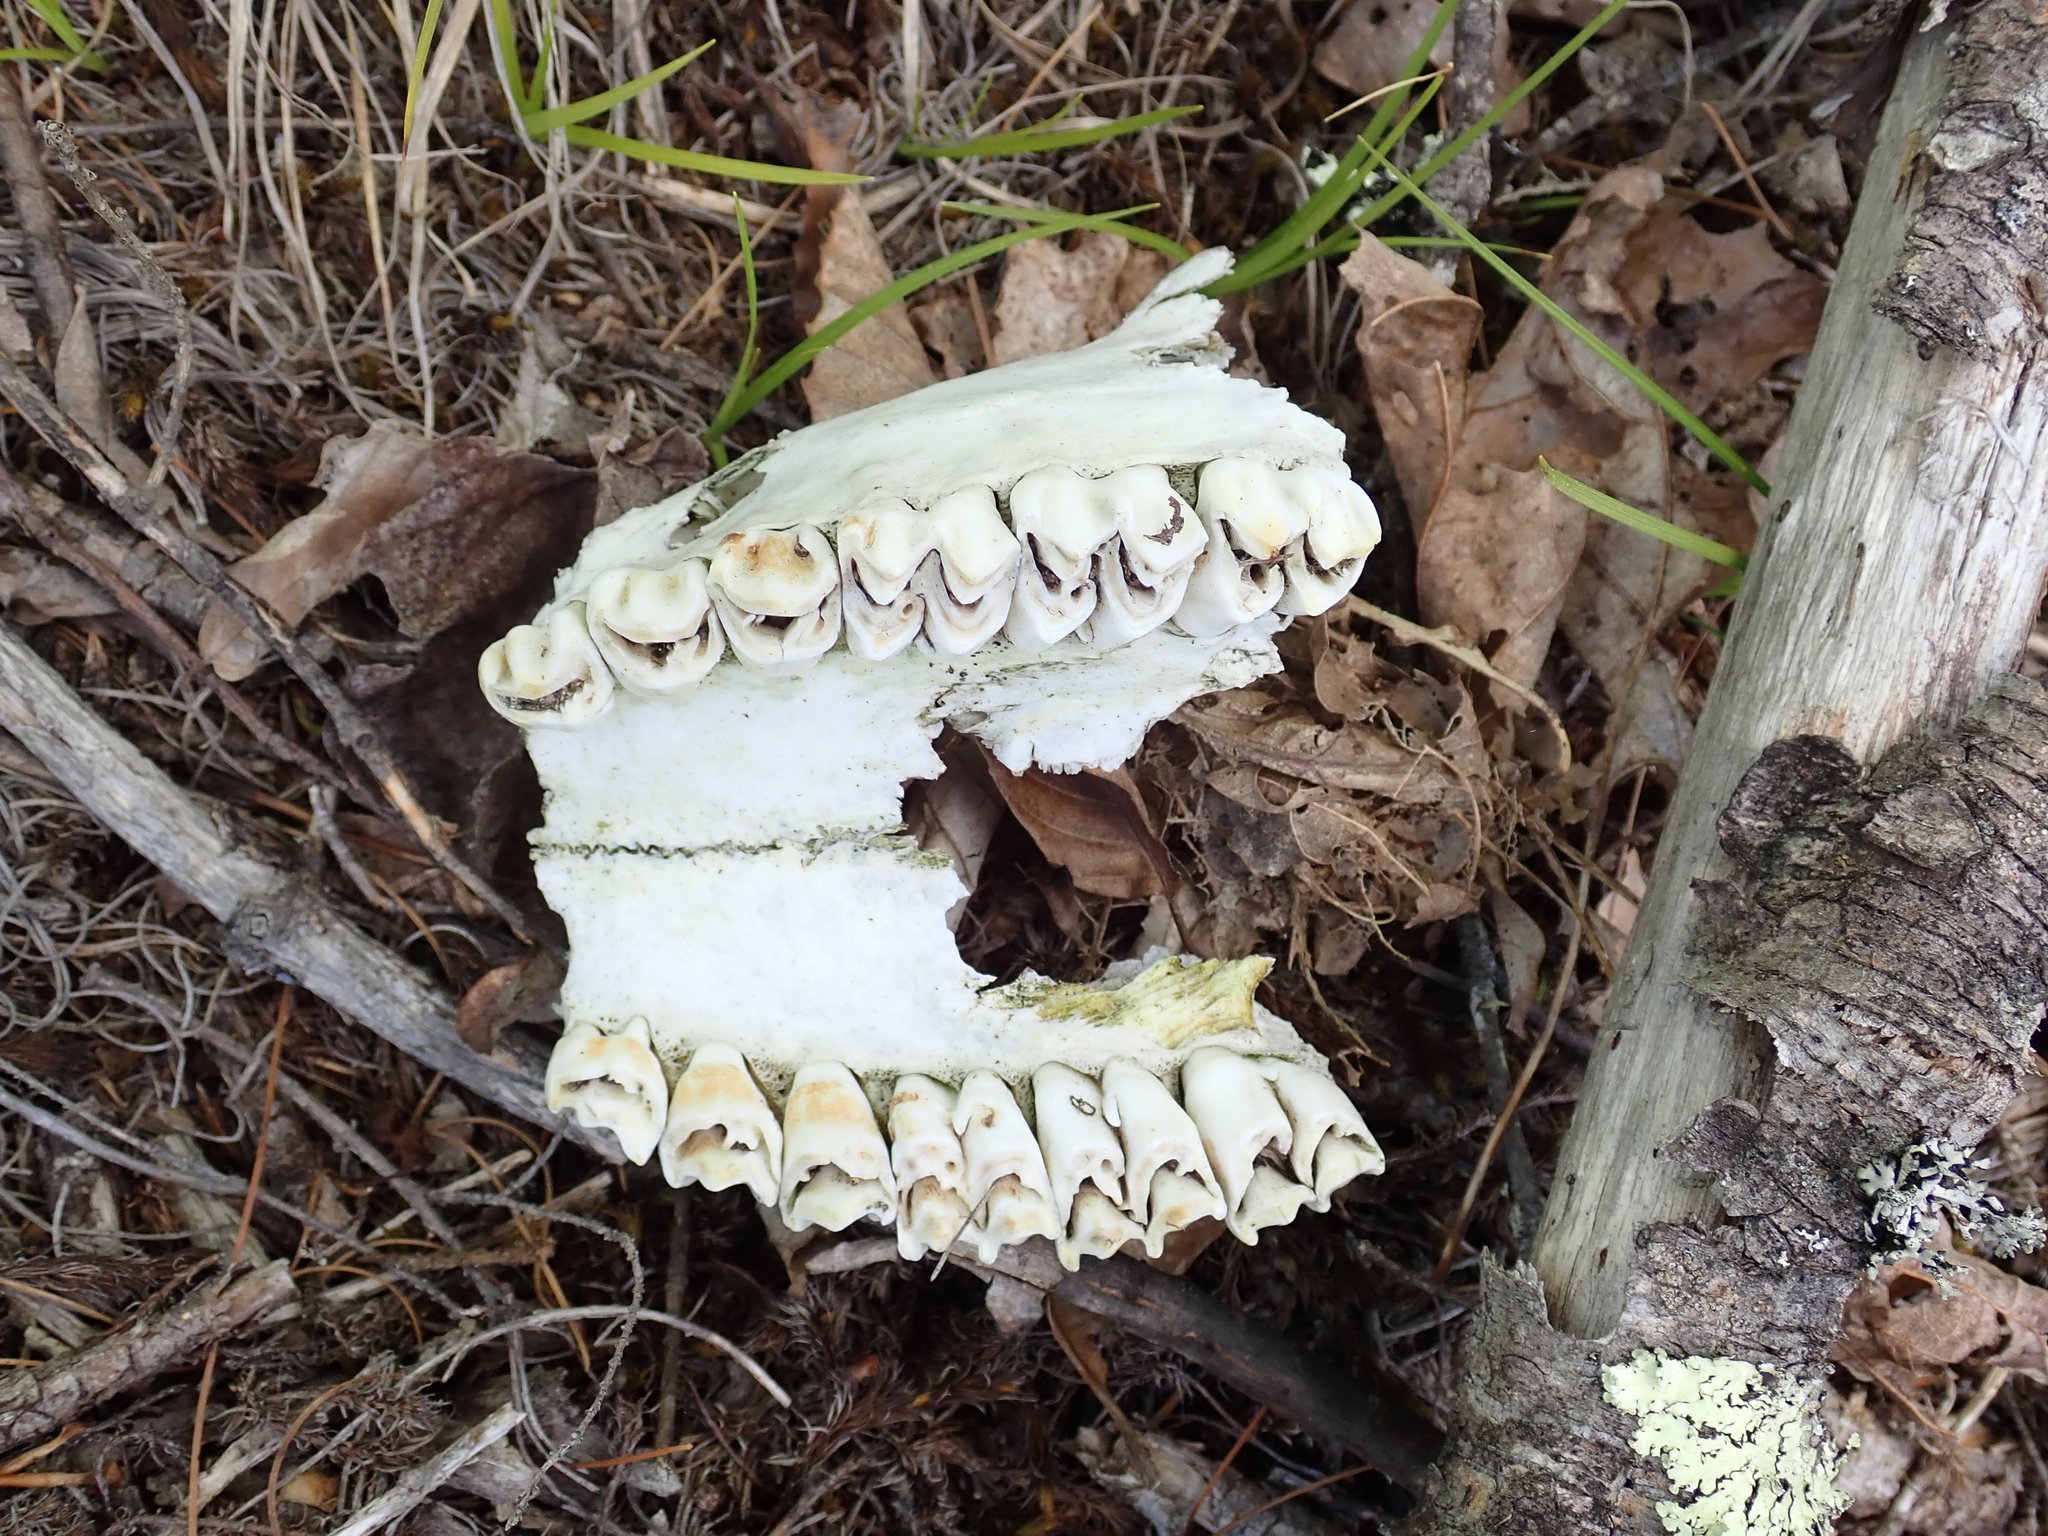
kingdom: Animalia
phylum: Chordata
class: Mammalia
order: Artiodactyla
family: Cervidae
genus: Odocoileus
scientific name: Odocoileus virginianus
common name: White-tailed deer
